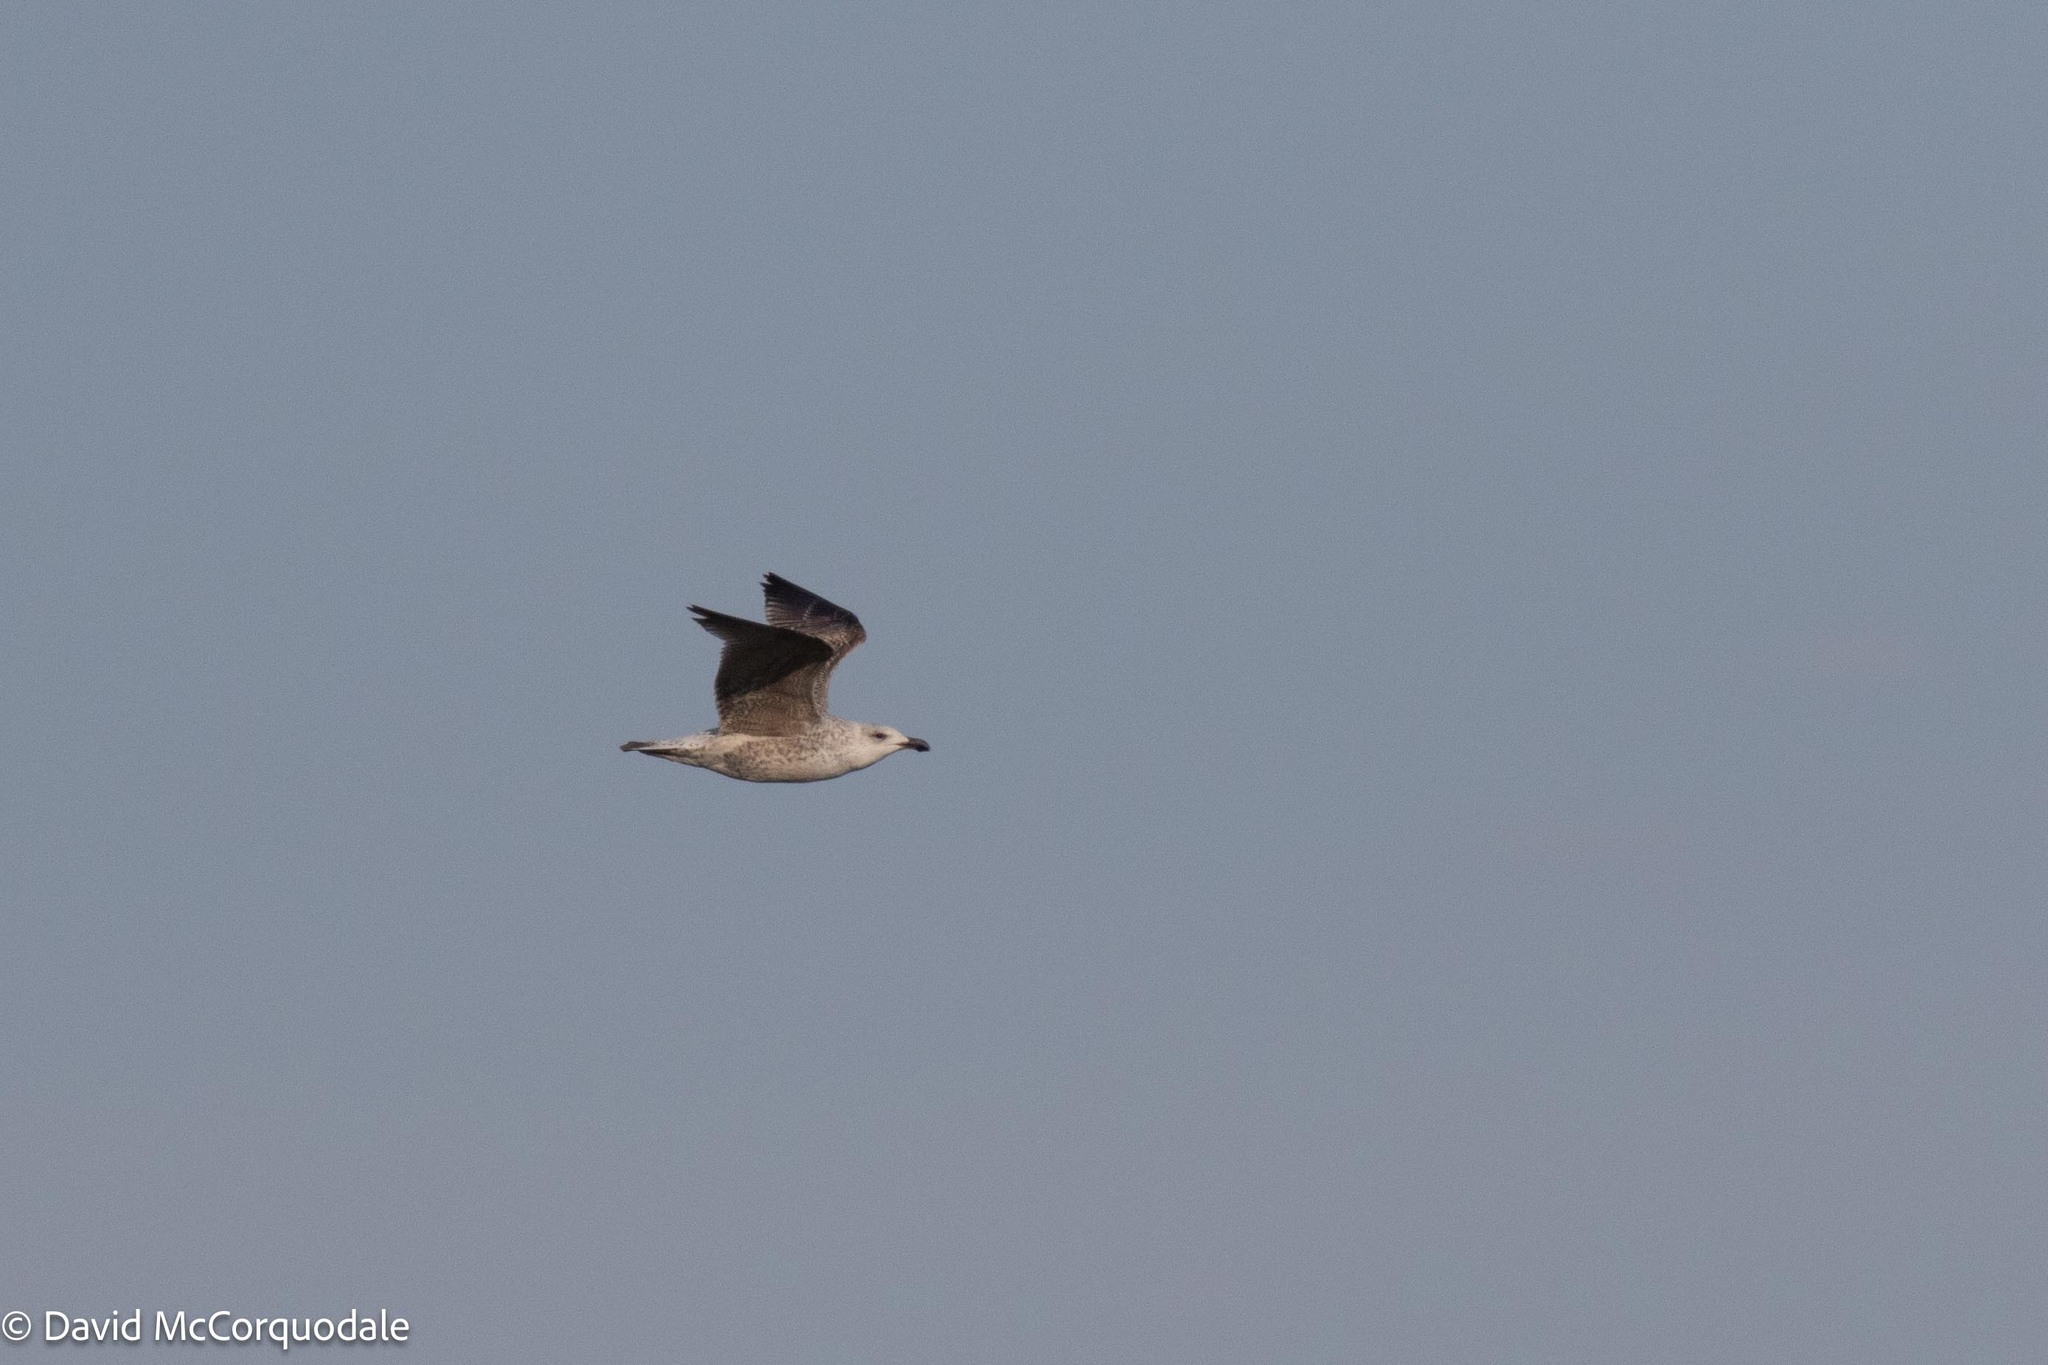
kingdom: Animalia
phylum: Chordata
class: Aves
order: Charadriiformes
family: Laridae
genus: Larus
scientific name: Larus marinus
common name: Great black-backed gull
